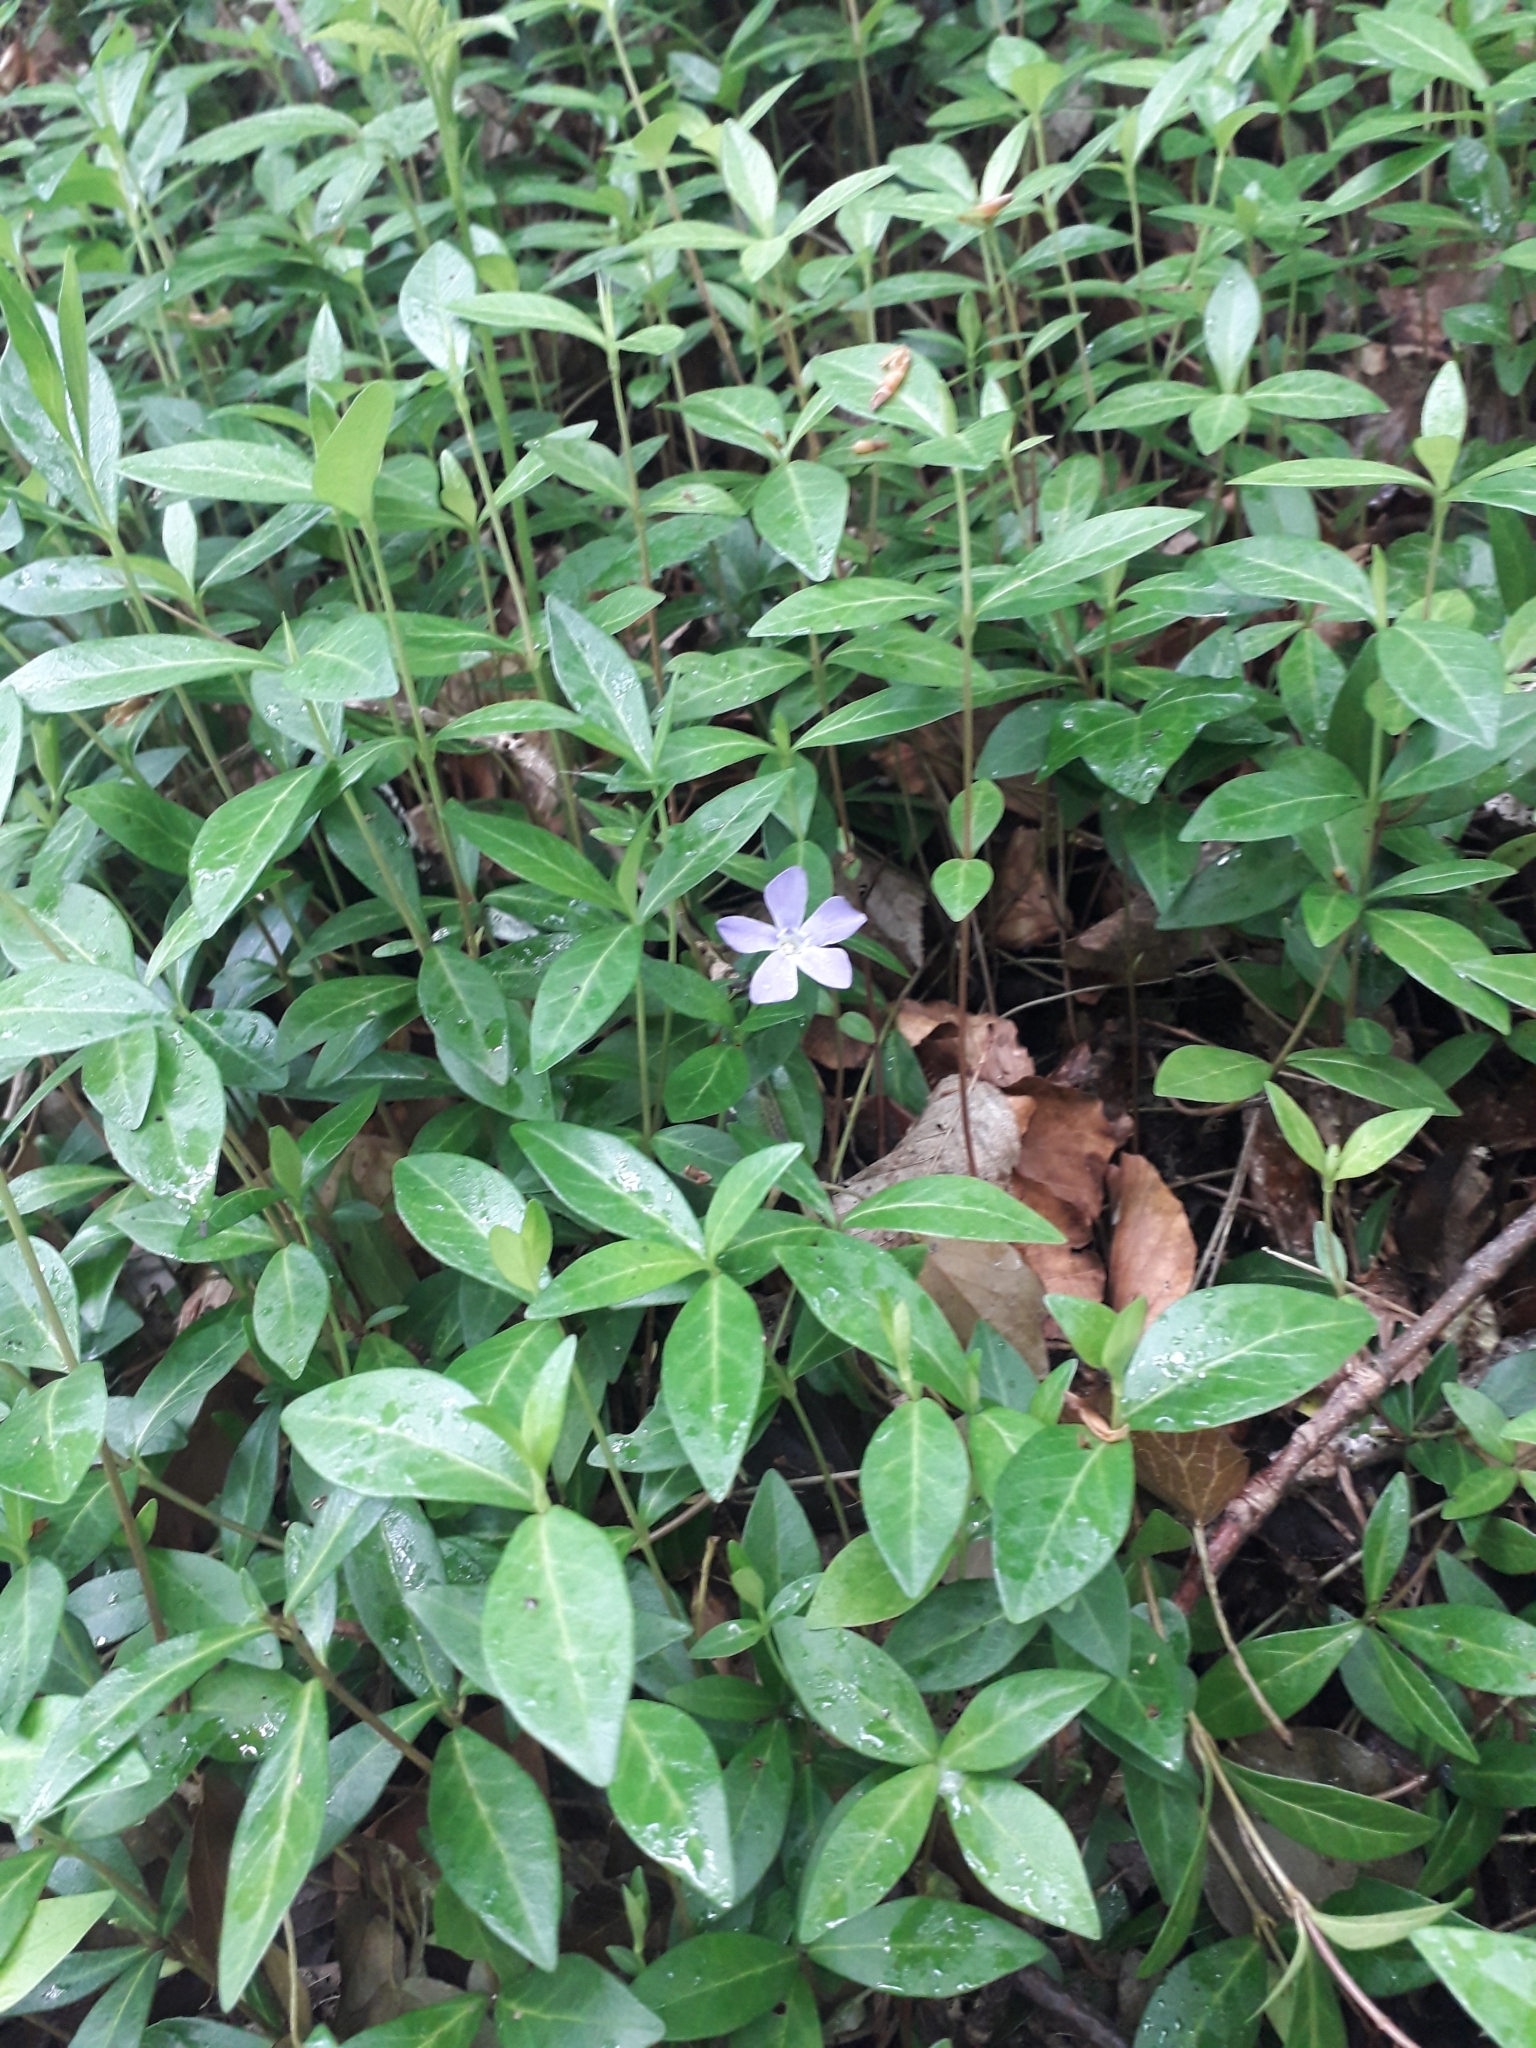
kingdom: Plantae
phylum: Tracheophyta
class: Magnoliopsida
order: Gentianales
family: Apocynaceae
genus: Vinca
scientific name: Vinca minor
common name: Lesser periwinkle
